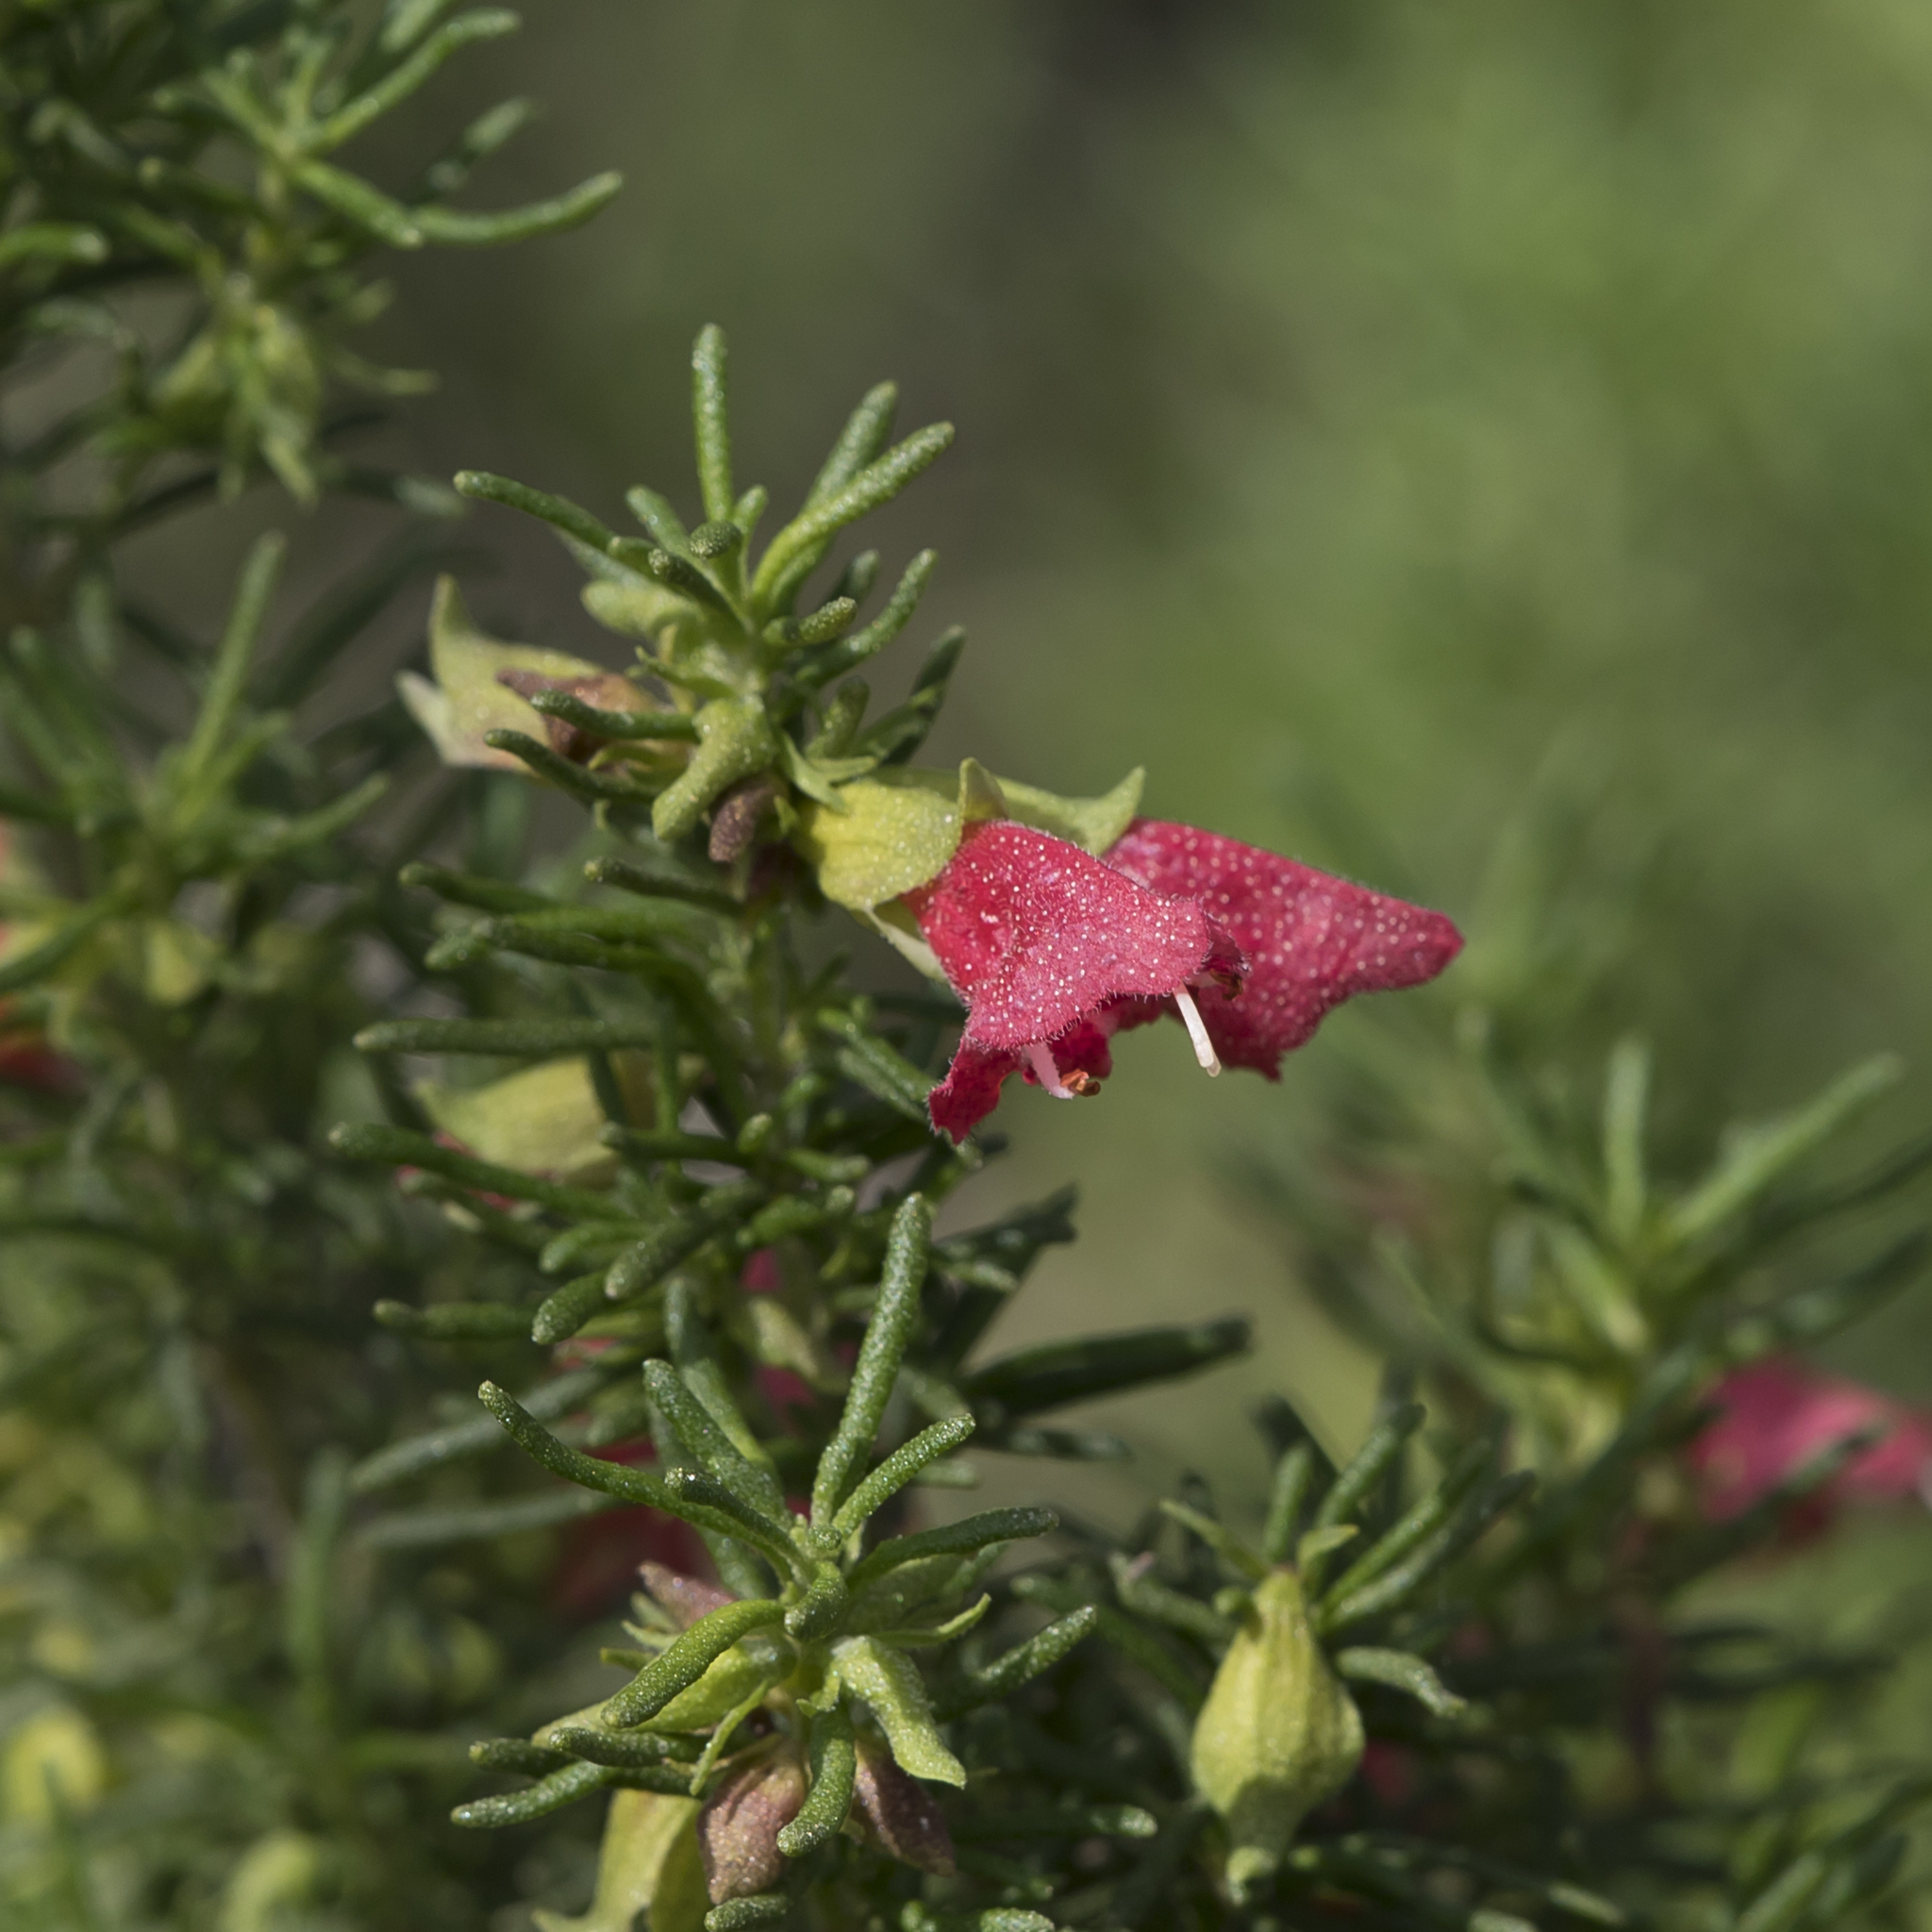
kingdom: Plantae
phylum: Tracheophyta
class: Magnoliopsida
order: Lamiales
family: Lamiaceae
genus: Prostanthera
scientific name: Prostanthera aspalathoides
